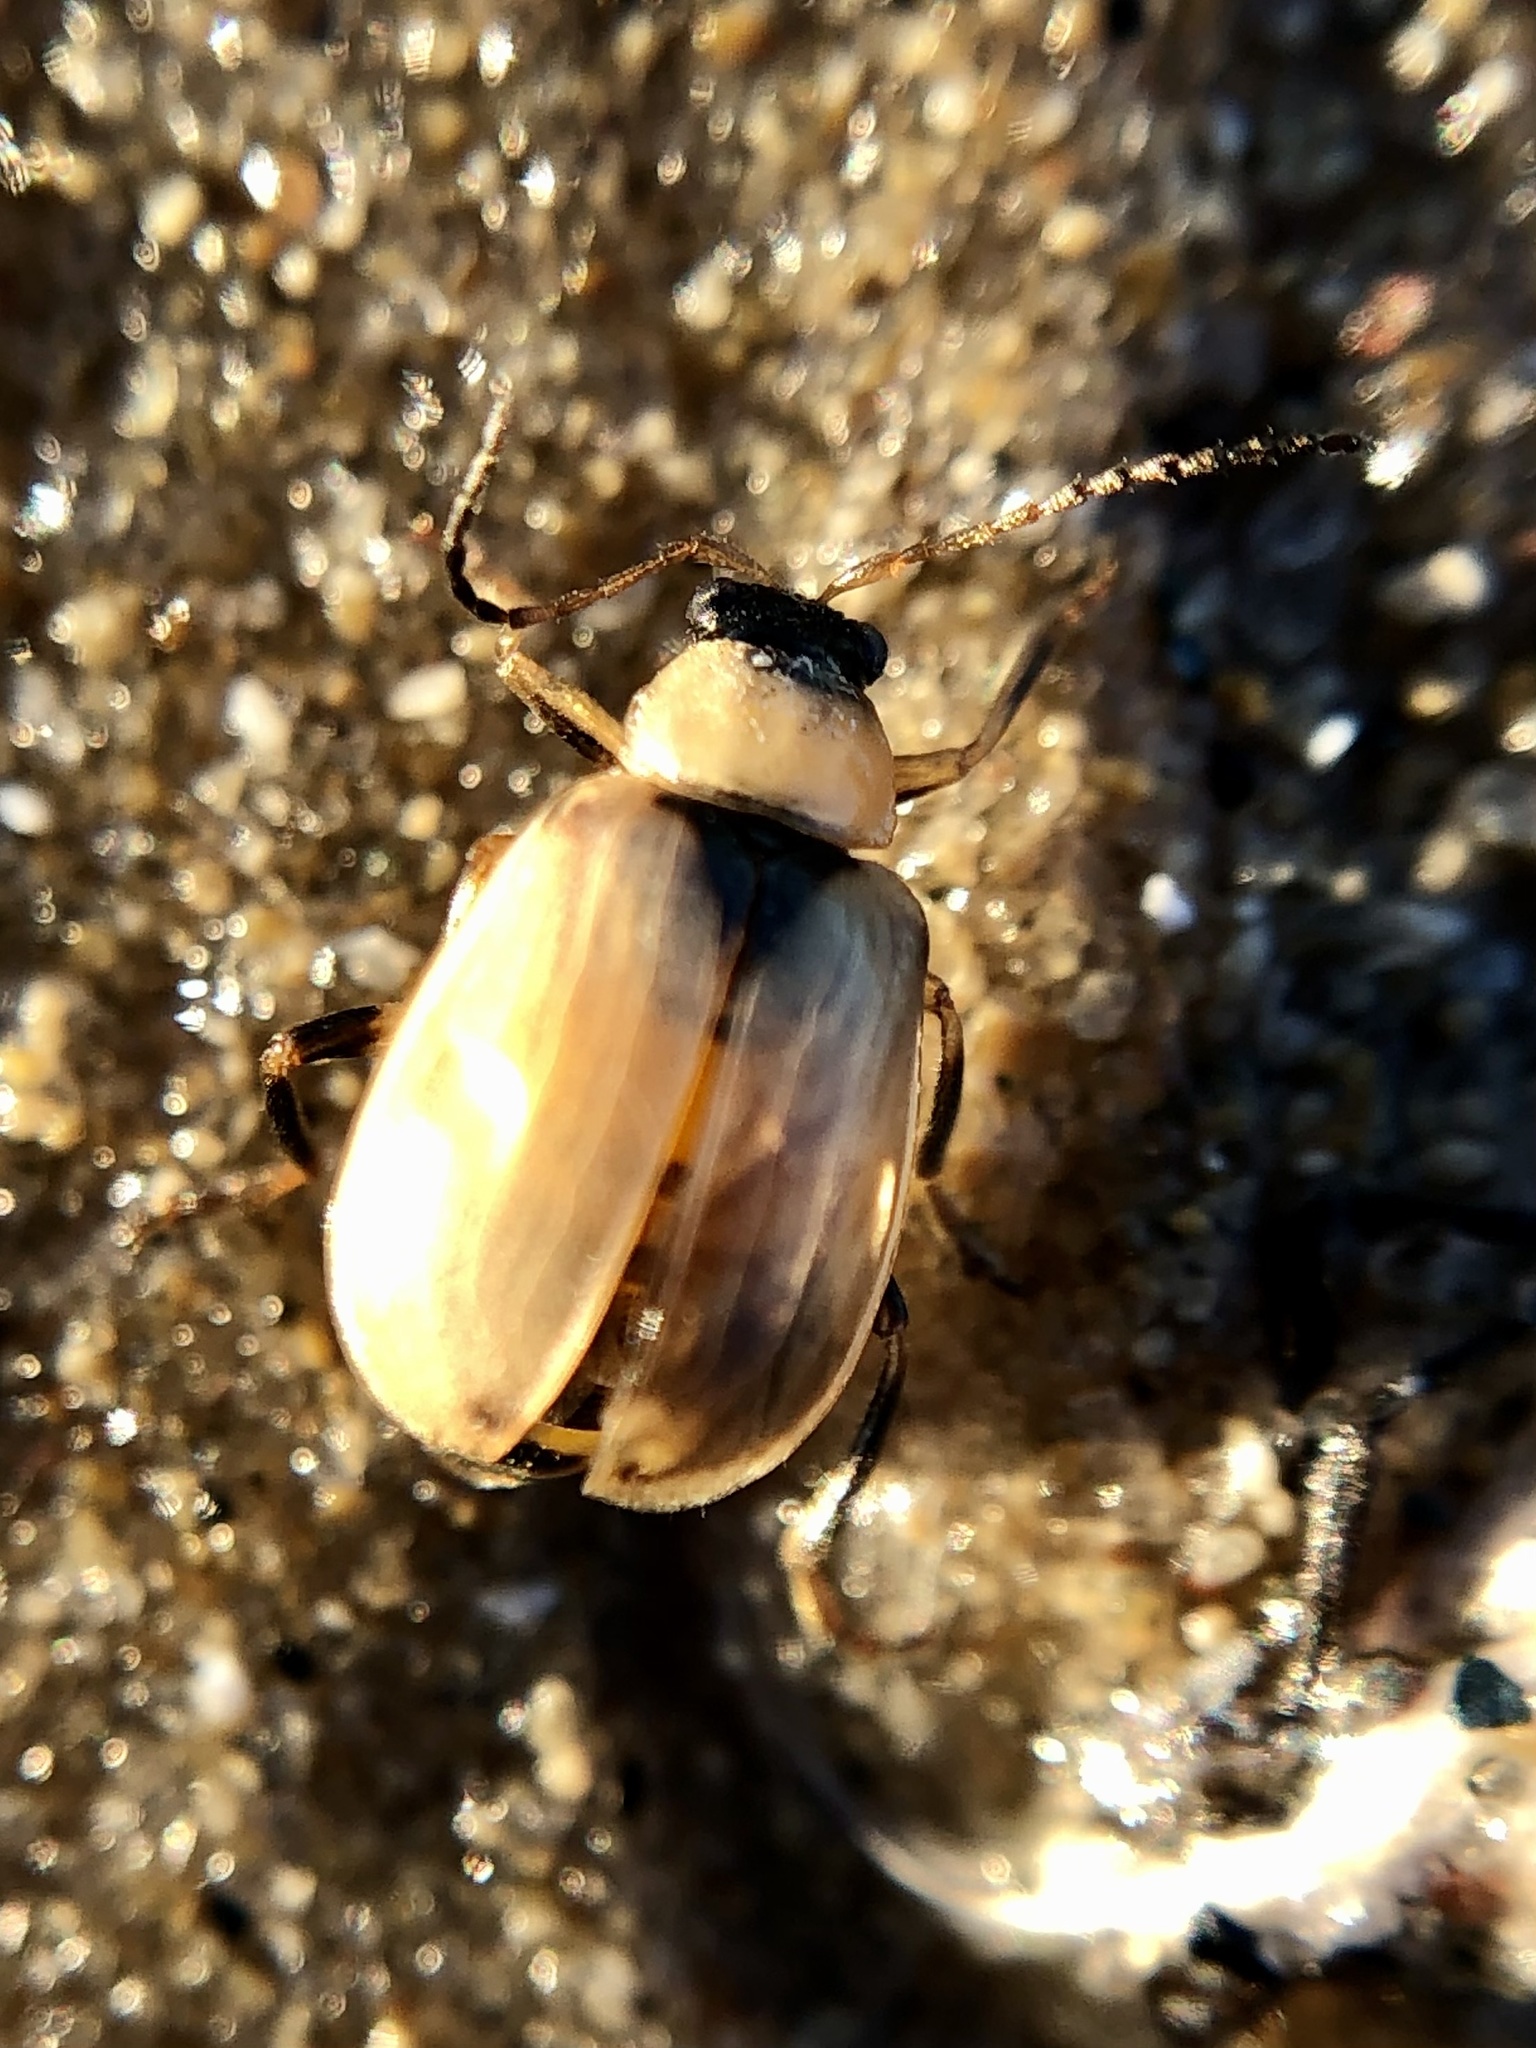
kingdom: Animalia
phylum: Arthropoda
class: Insecta
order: Coleoptera
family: Chrysomelidae
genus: Cerotoma
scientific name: Cerotoma trifurcata
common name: Bean leaf beetle
